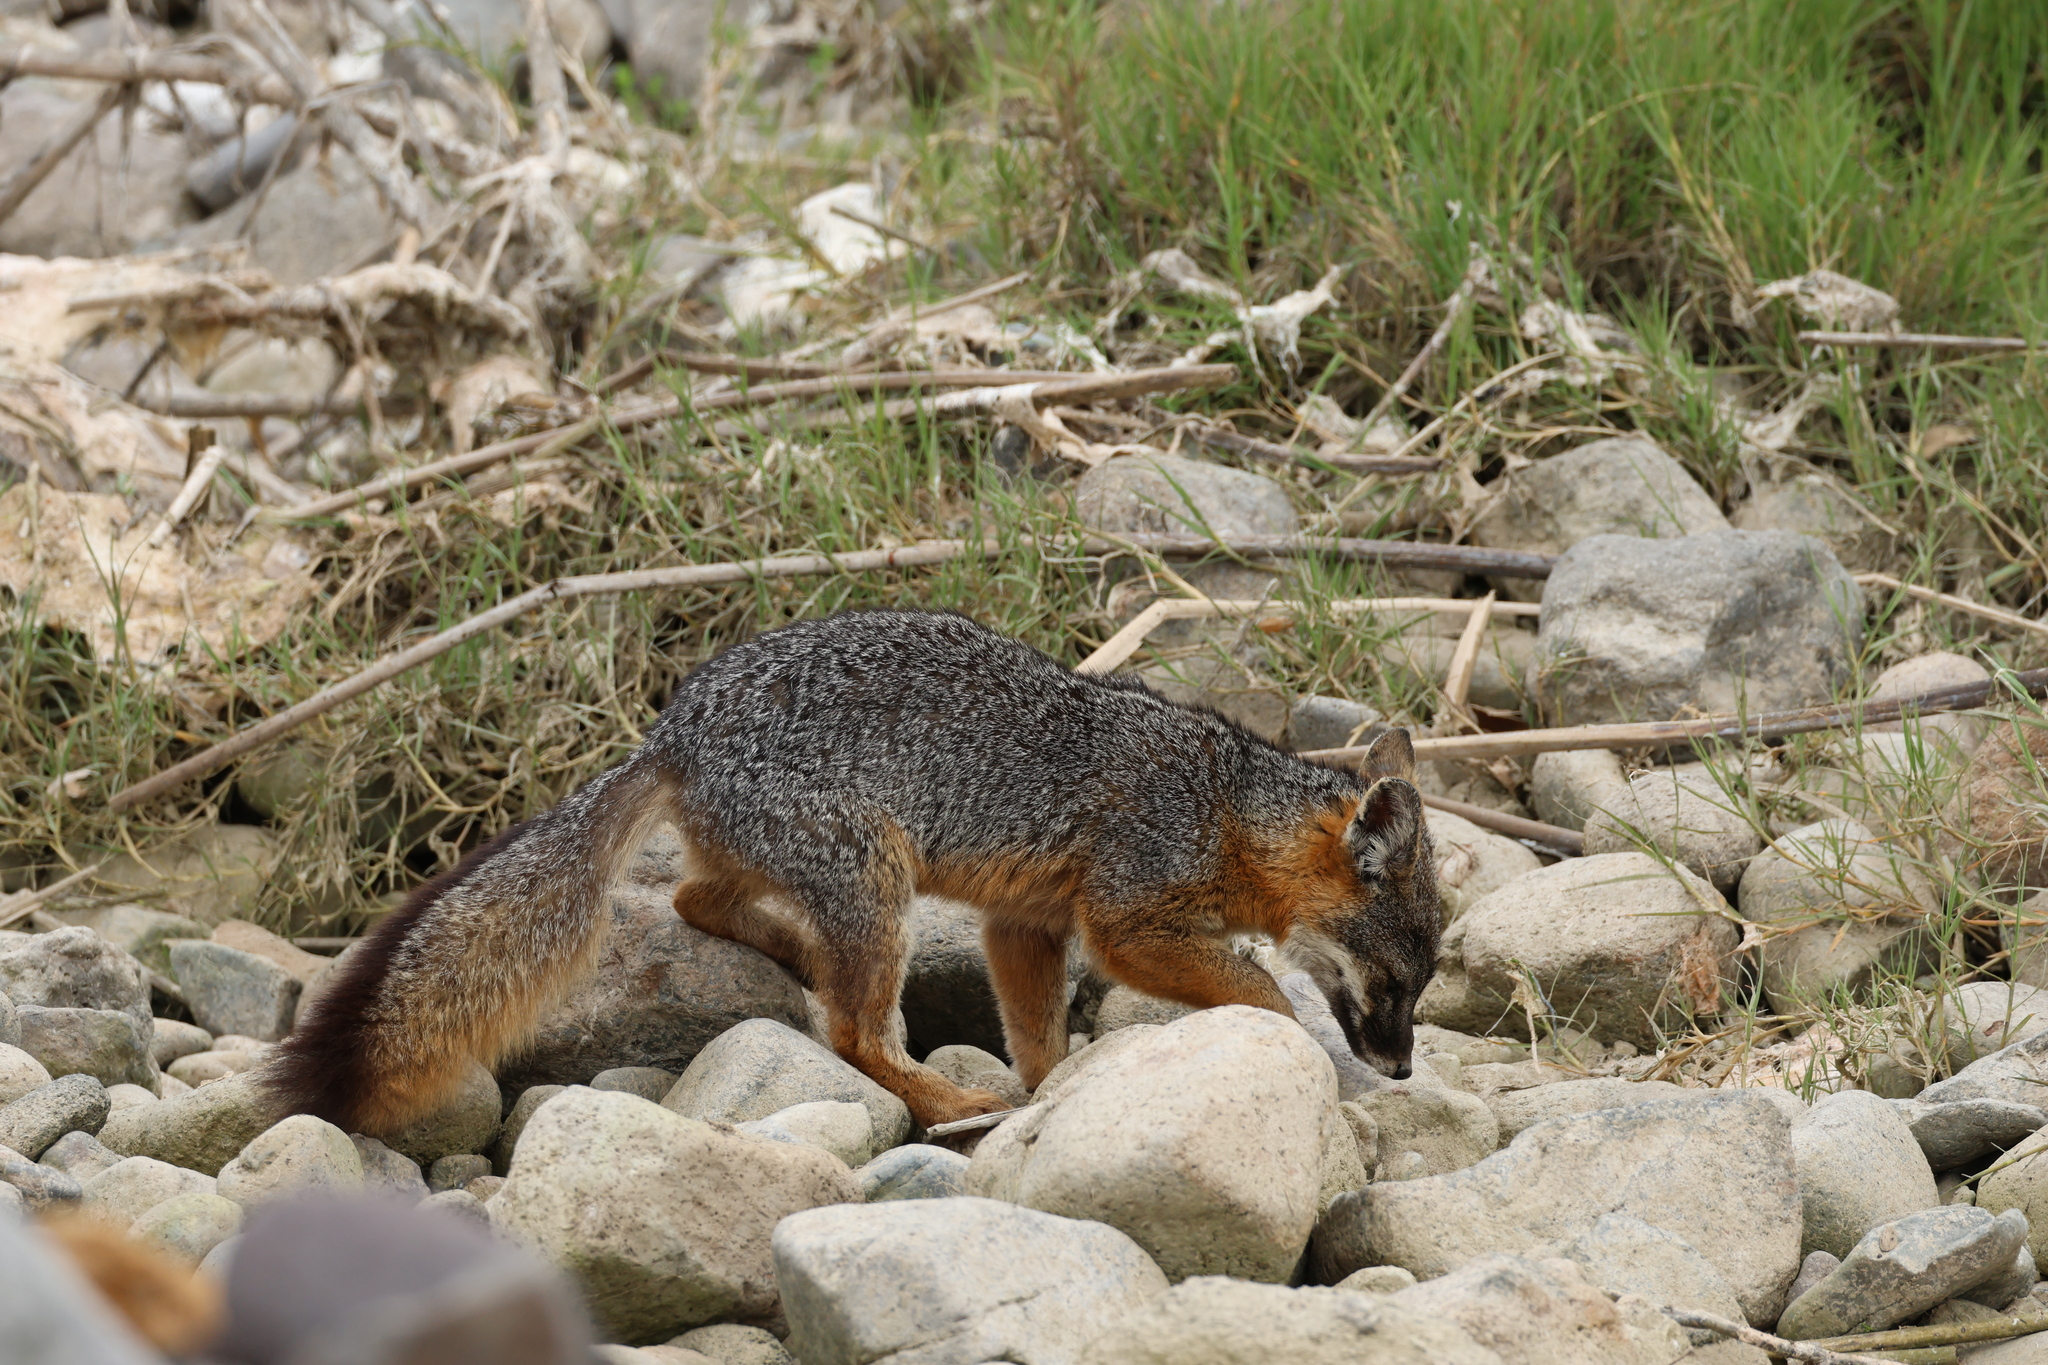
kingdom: Animalia
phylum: Chordata
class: Mammalia
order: Carnivora
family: Canidae
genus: Urocyon
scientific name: Urocyon littoralis
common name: Island gray fox
